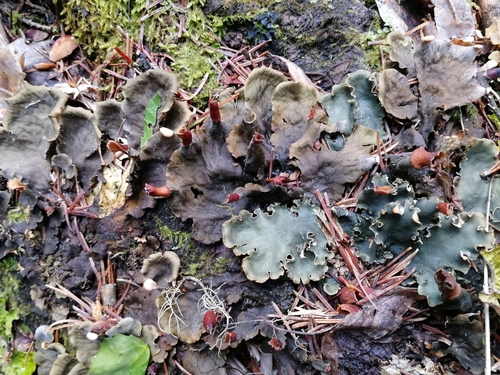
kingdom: Fungi
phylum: Ascomycota
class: Lecanoromycetes
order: Peltigerales
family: Peltigeraceae
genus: Peltigera
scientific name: Peltigera canina
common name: Dog pelt lichen
